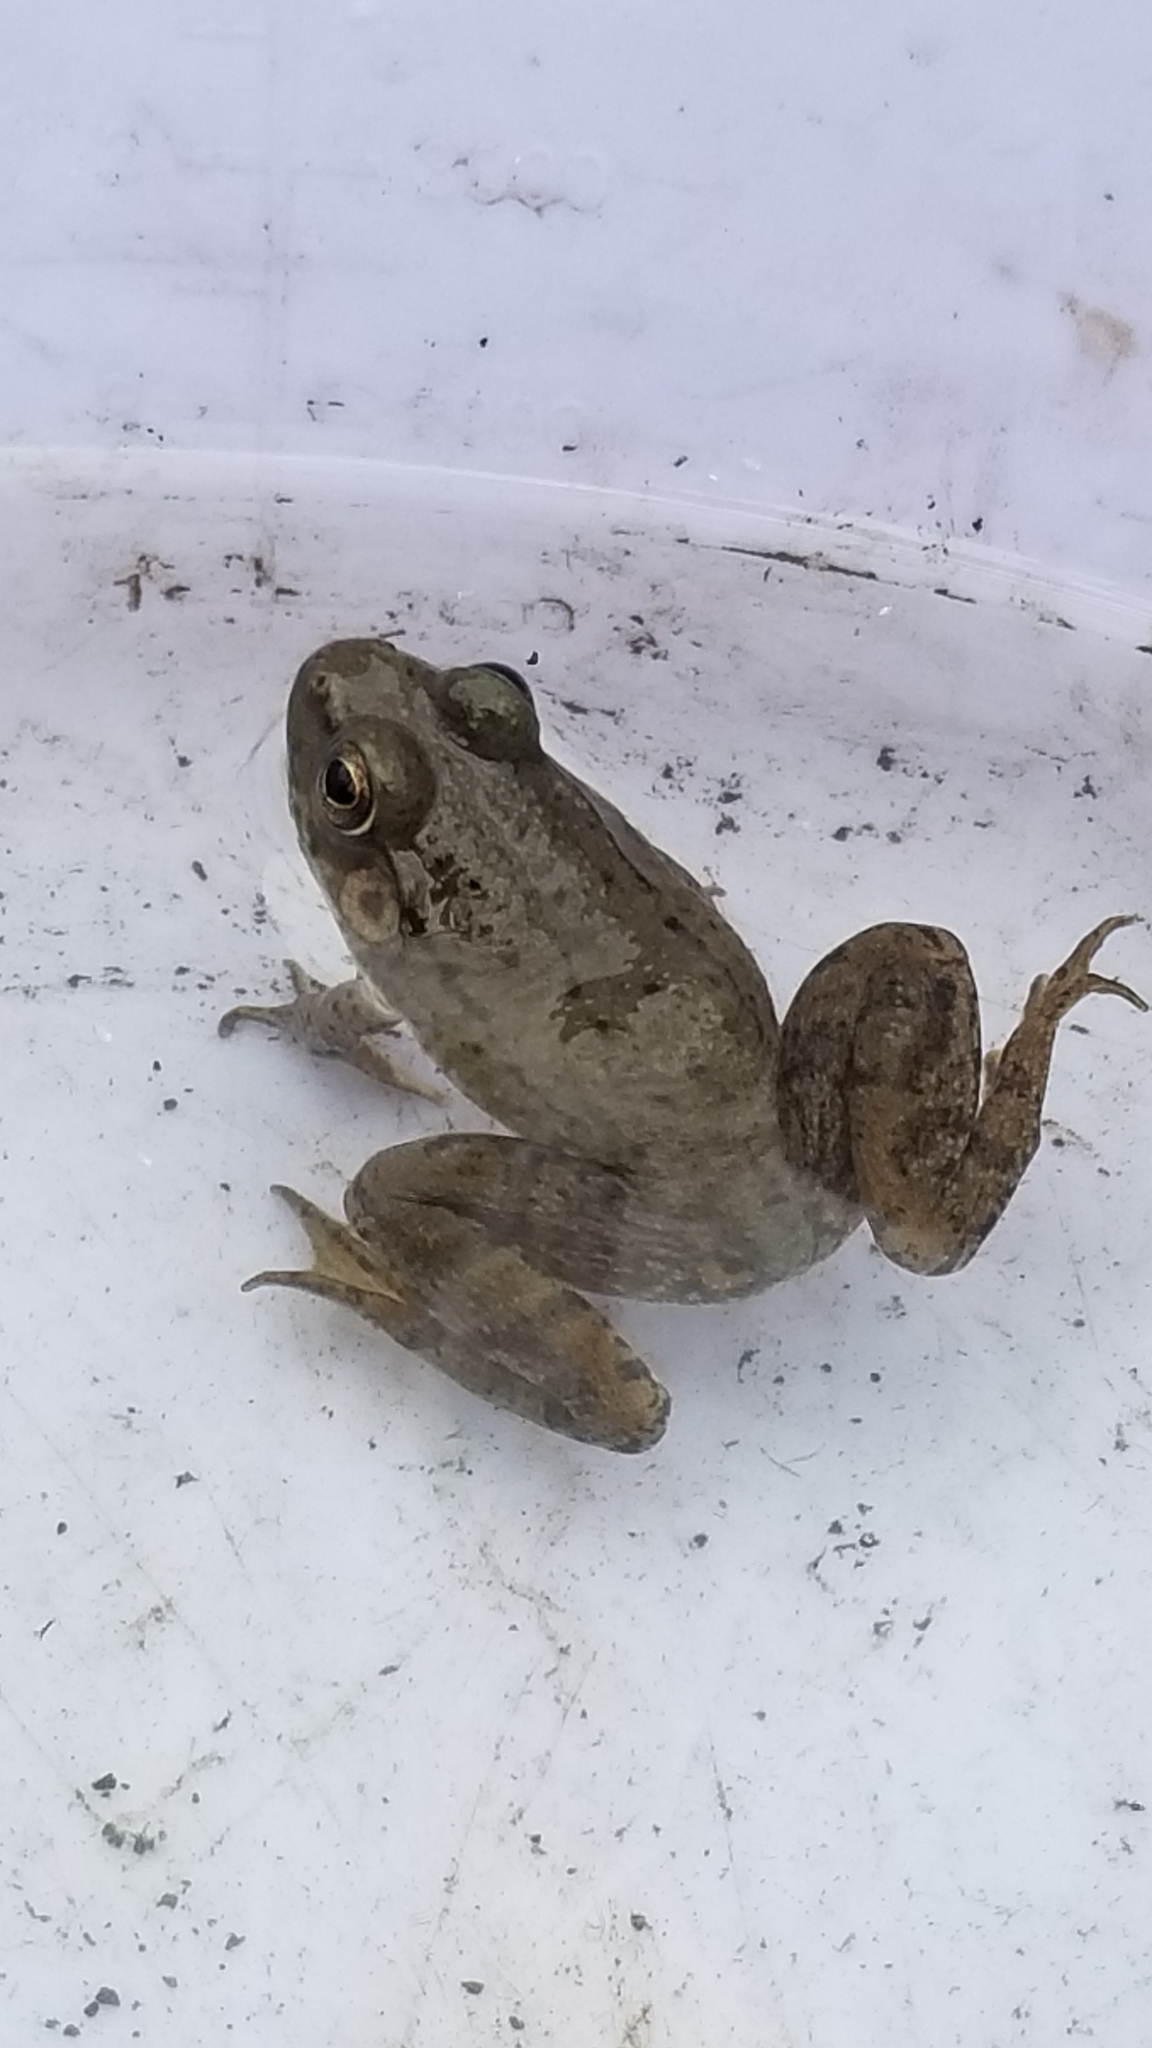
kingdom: Animalia
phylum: Chordata
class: Amphibia
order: Anura
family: Ranidae
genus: Lithobates
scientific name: Lithobates clamitans
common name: Green frog
